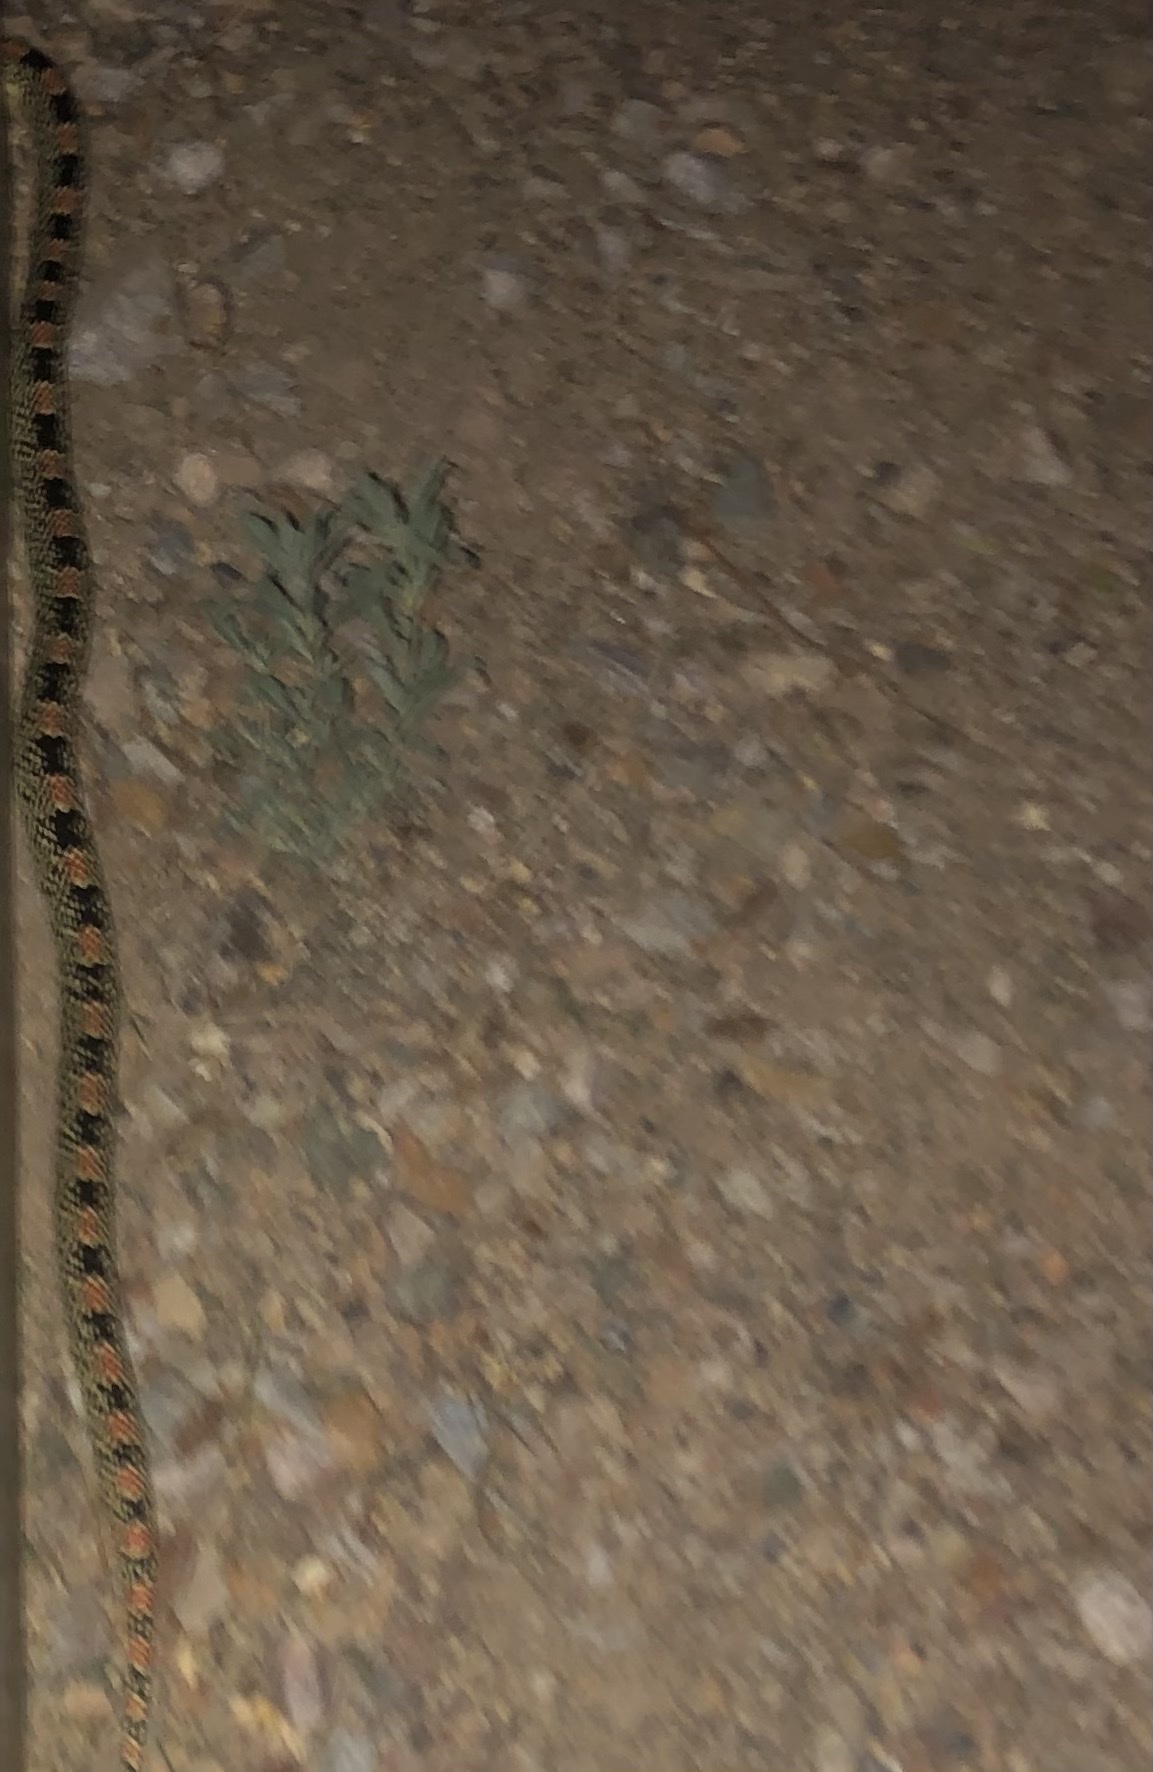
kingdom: Animalia
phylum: Chordata
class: Squamata
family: Colubridae
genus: Rhinocheilus
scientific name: Rhinocheilus lecontei
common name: Longnose snake
